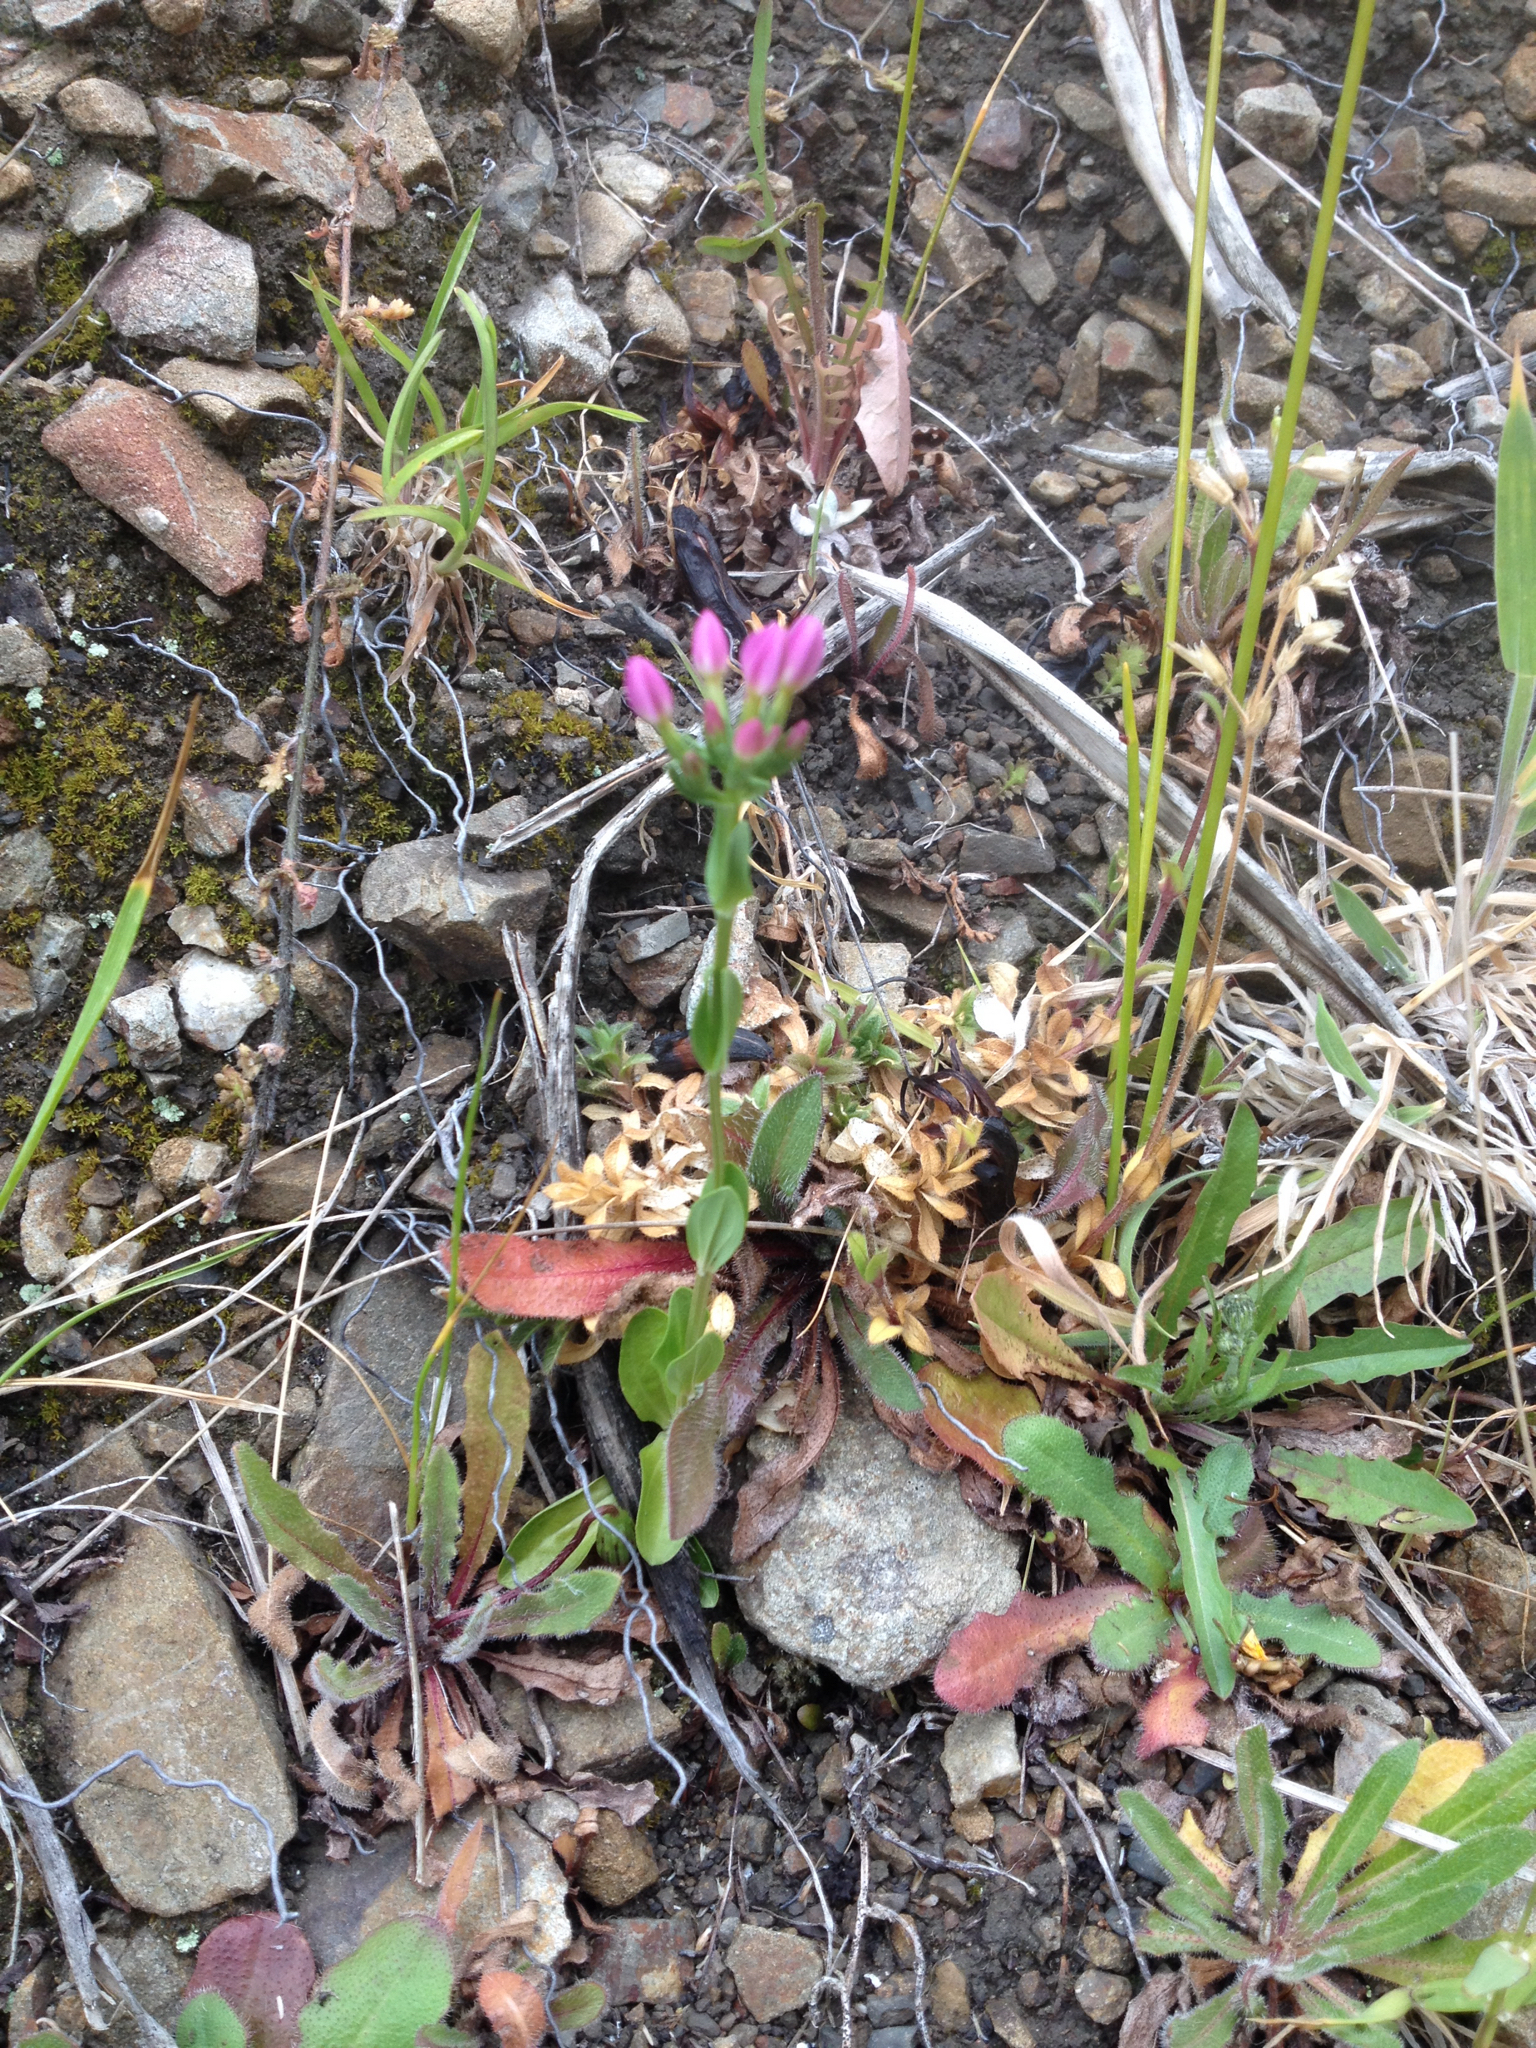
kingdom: Plantae
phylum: Tracheophyta
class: Magnoliopsida
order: Gentianales
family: Gentianaceae
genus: Centaurium
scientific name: Centaurium erythraea
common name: Common centaury
